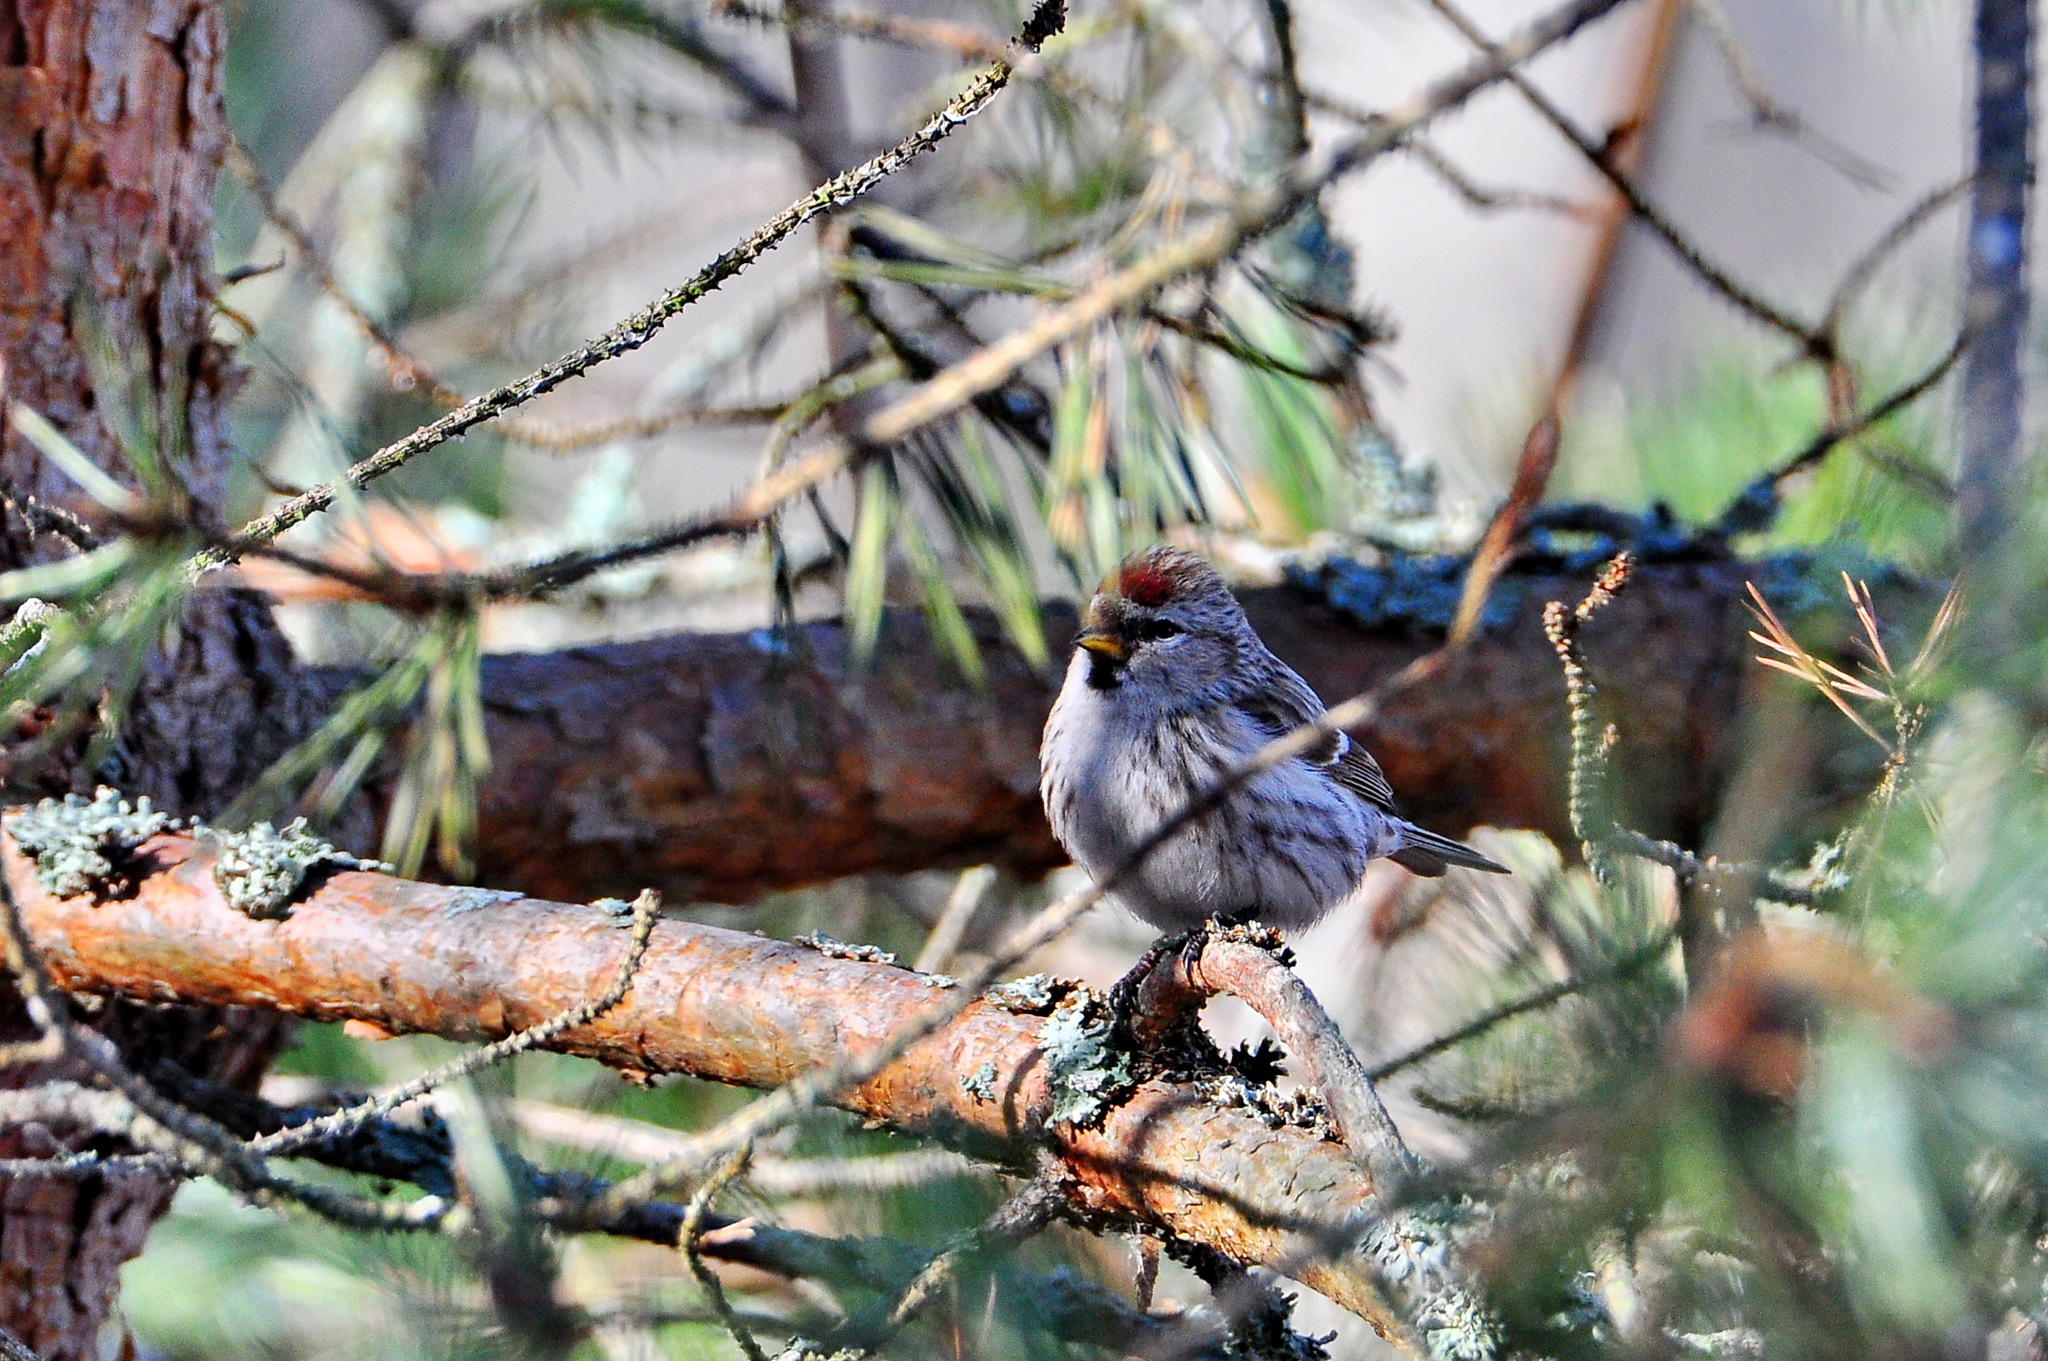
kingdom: Animalia
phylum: Chordata
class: Aves
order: Passeriformes
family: Fringillidae
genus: Acanthis
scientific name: Acanthis flammea
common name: Common redpoll
